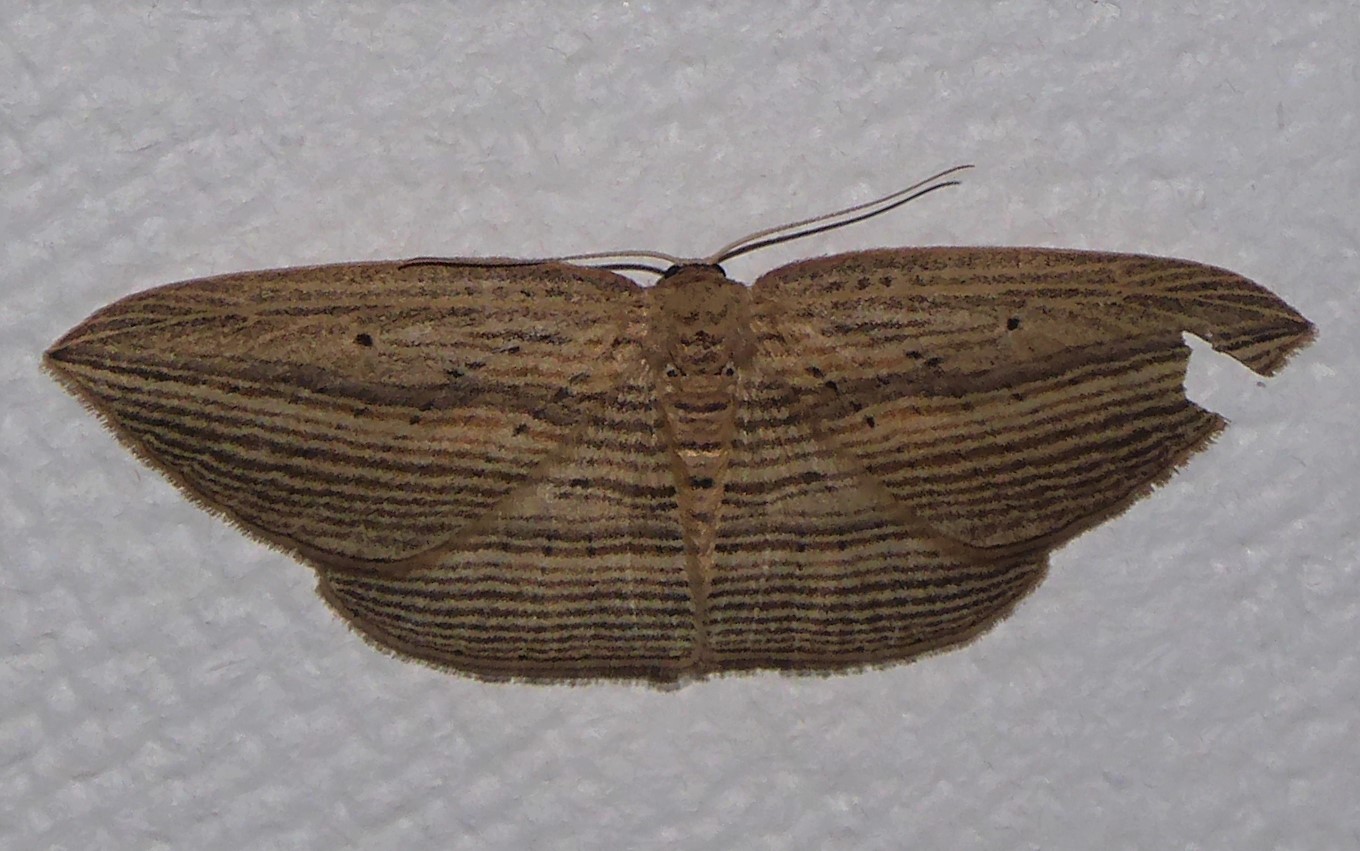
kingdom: Animalia
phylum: Arthropoda
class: Insecta
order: Lepidoptera
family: Geometridae
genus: Epiphryne
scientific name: Epiphryne verriculata
